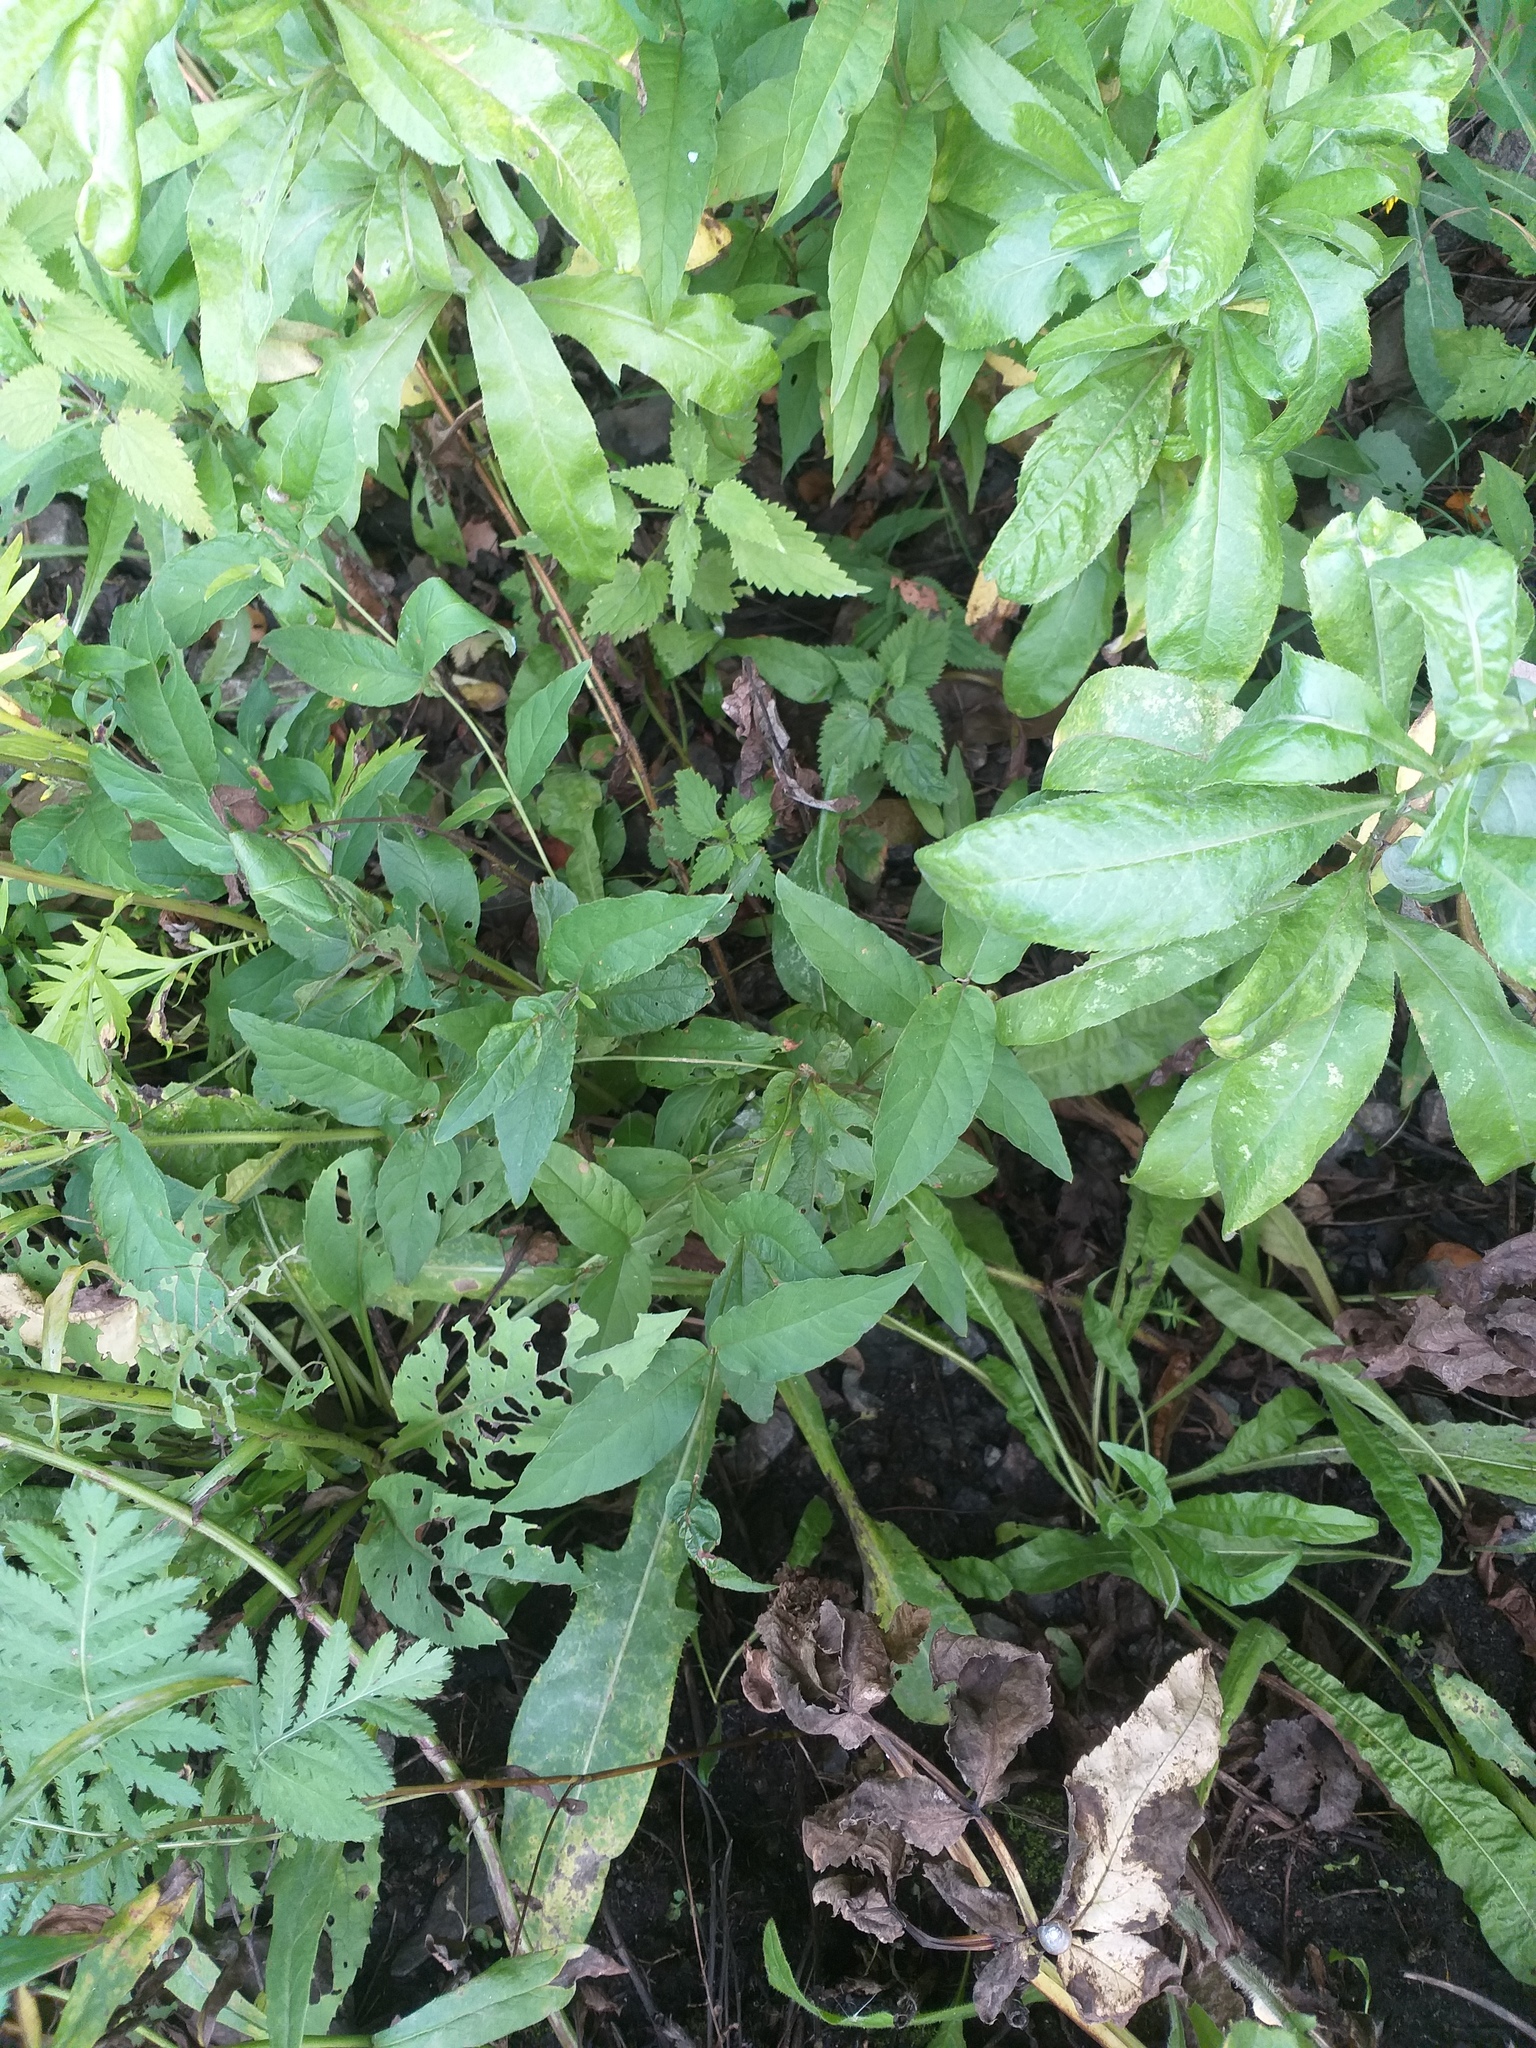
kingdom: Plantae
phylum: Tracheophyta
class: Magnoliopsida
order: Ericales
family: Primulaceae
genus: Lysimachia
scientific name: Lysimachia vulgaris
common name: Yellow loosestrife
